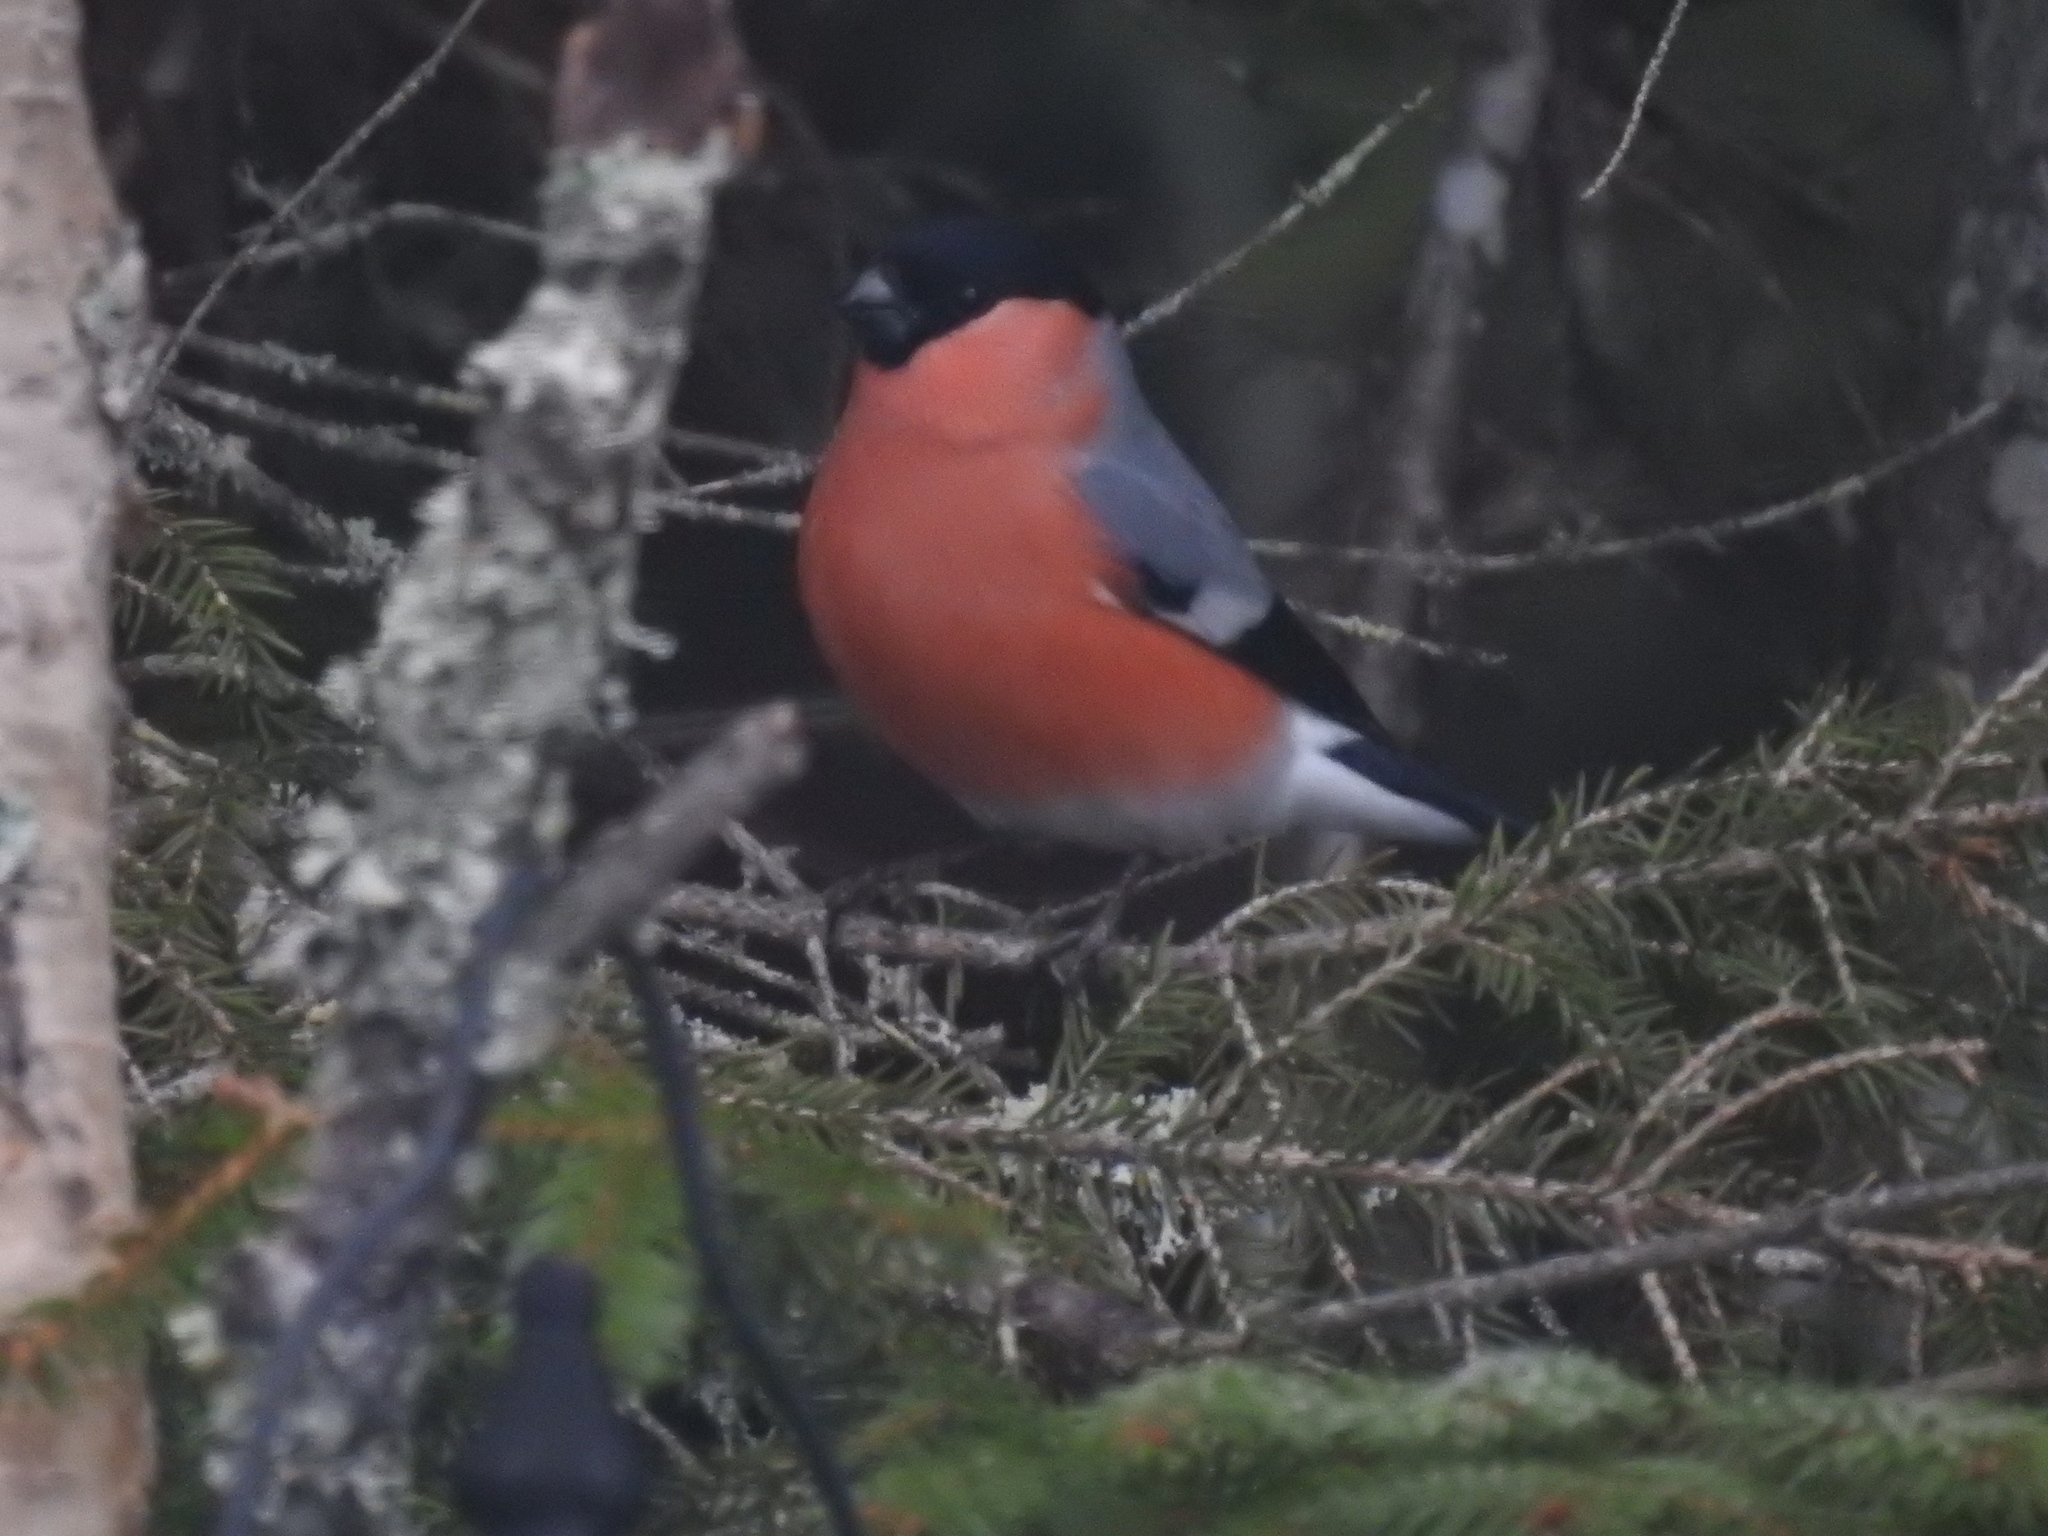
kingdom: Animalia
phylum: Chordata
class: Aves
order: Passeriformes
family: Fringillidae
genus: Pyrrhula
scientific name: Pyrrhula pyrrhula
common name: Eurasian bullfinch
